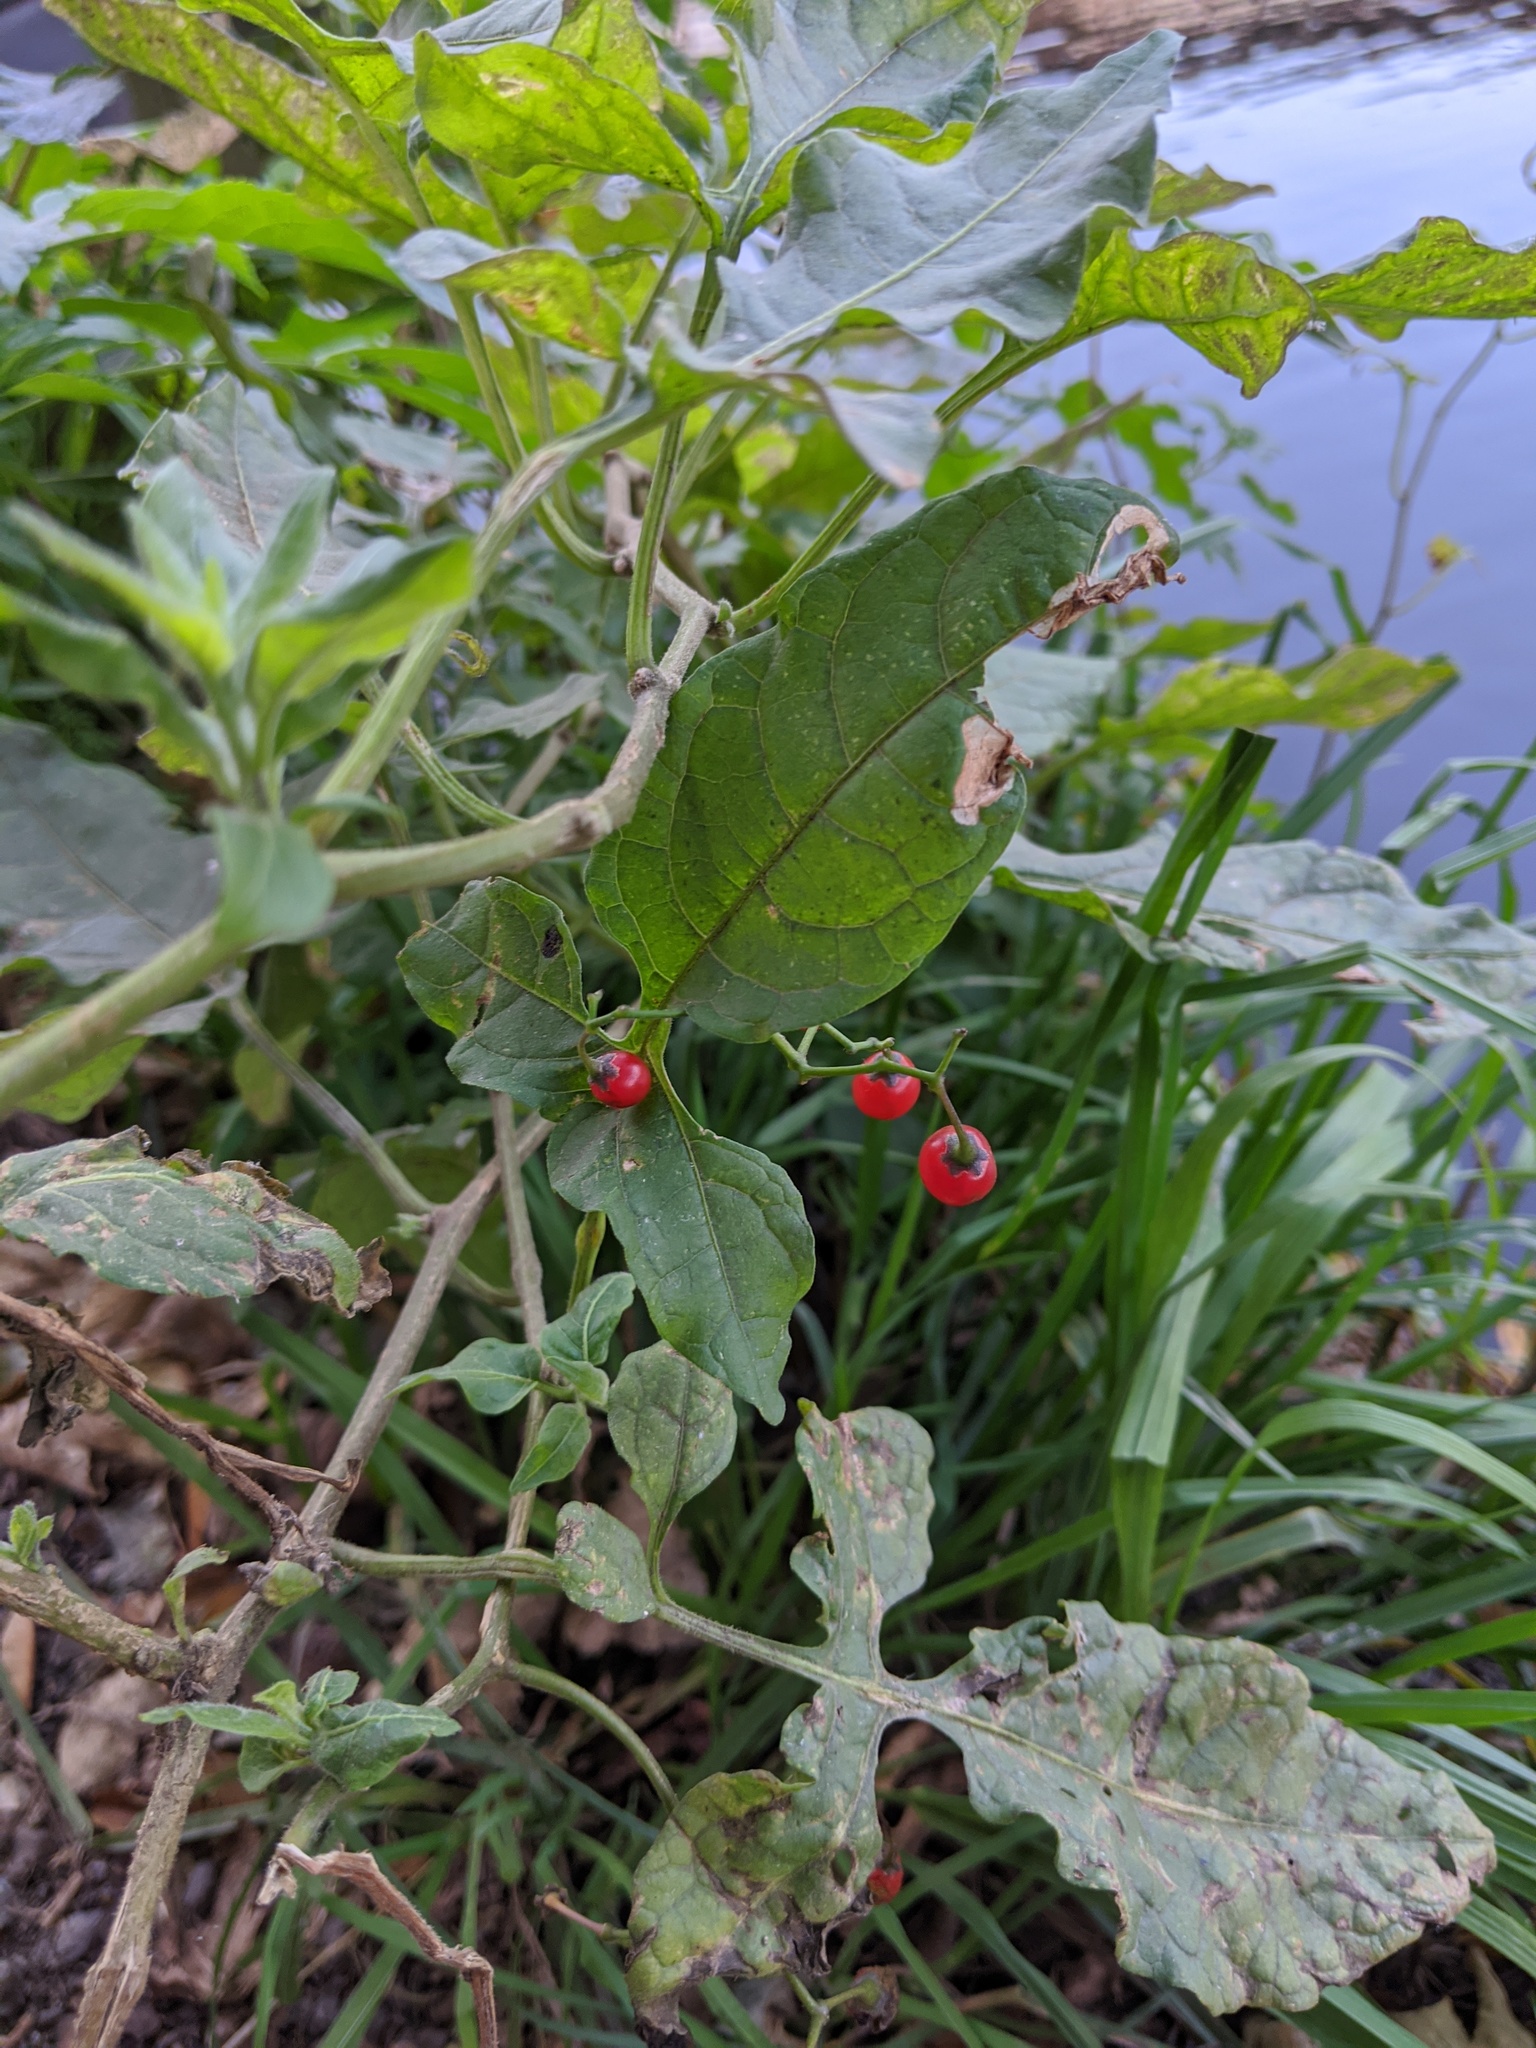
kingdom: Plantae
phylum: Tracheophyta
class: Magnoliopsida
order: Solanales
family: Solanaceae
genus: Solanum
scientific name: Solanum dulcamara
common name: Climbing nightshade
